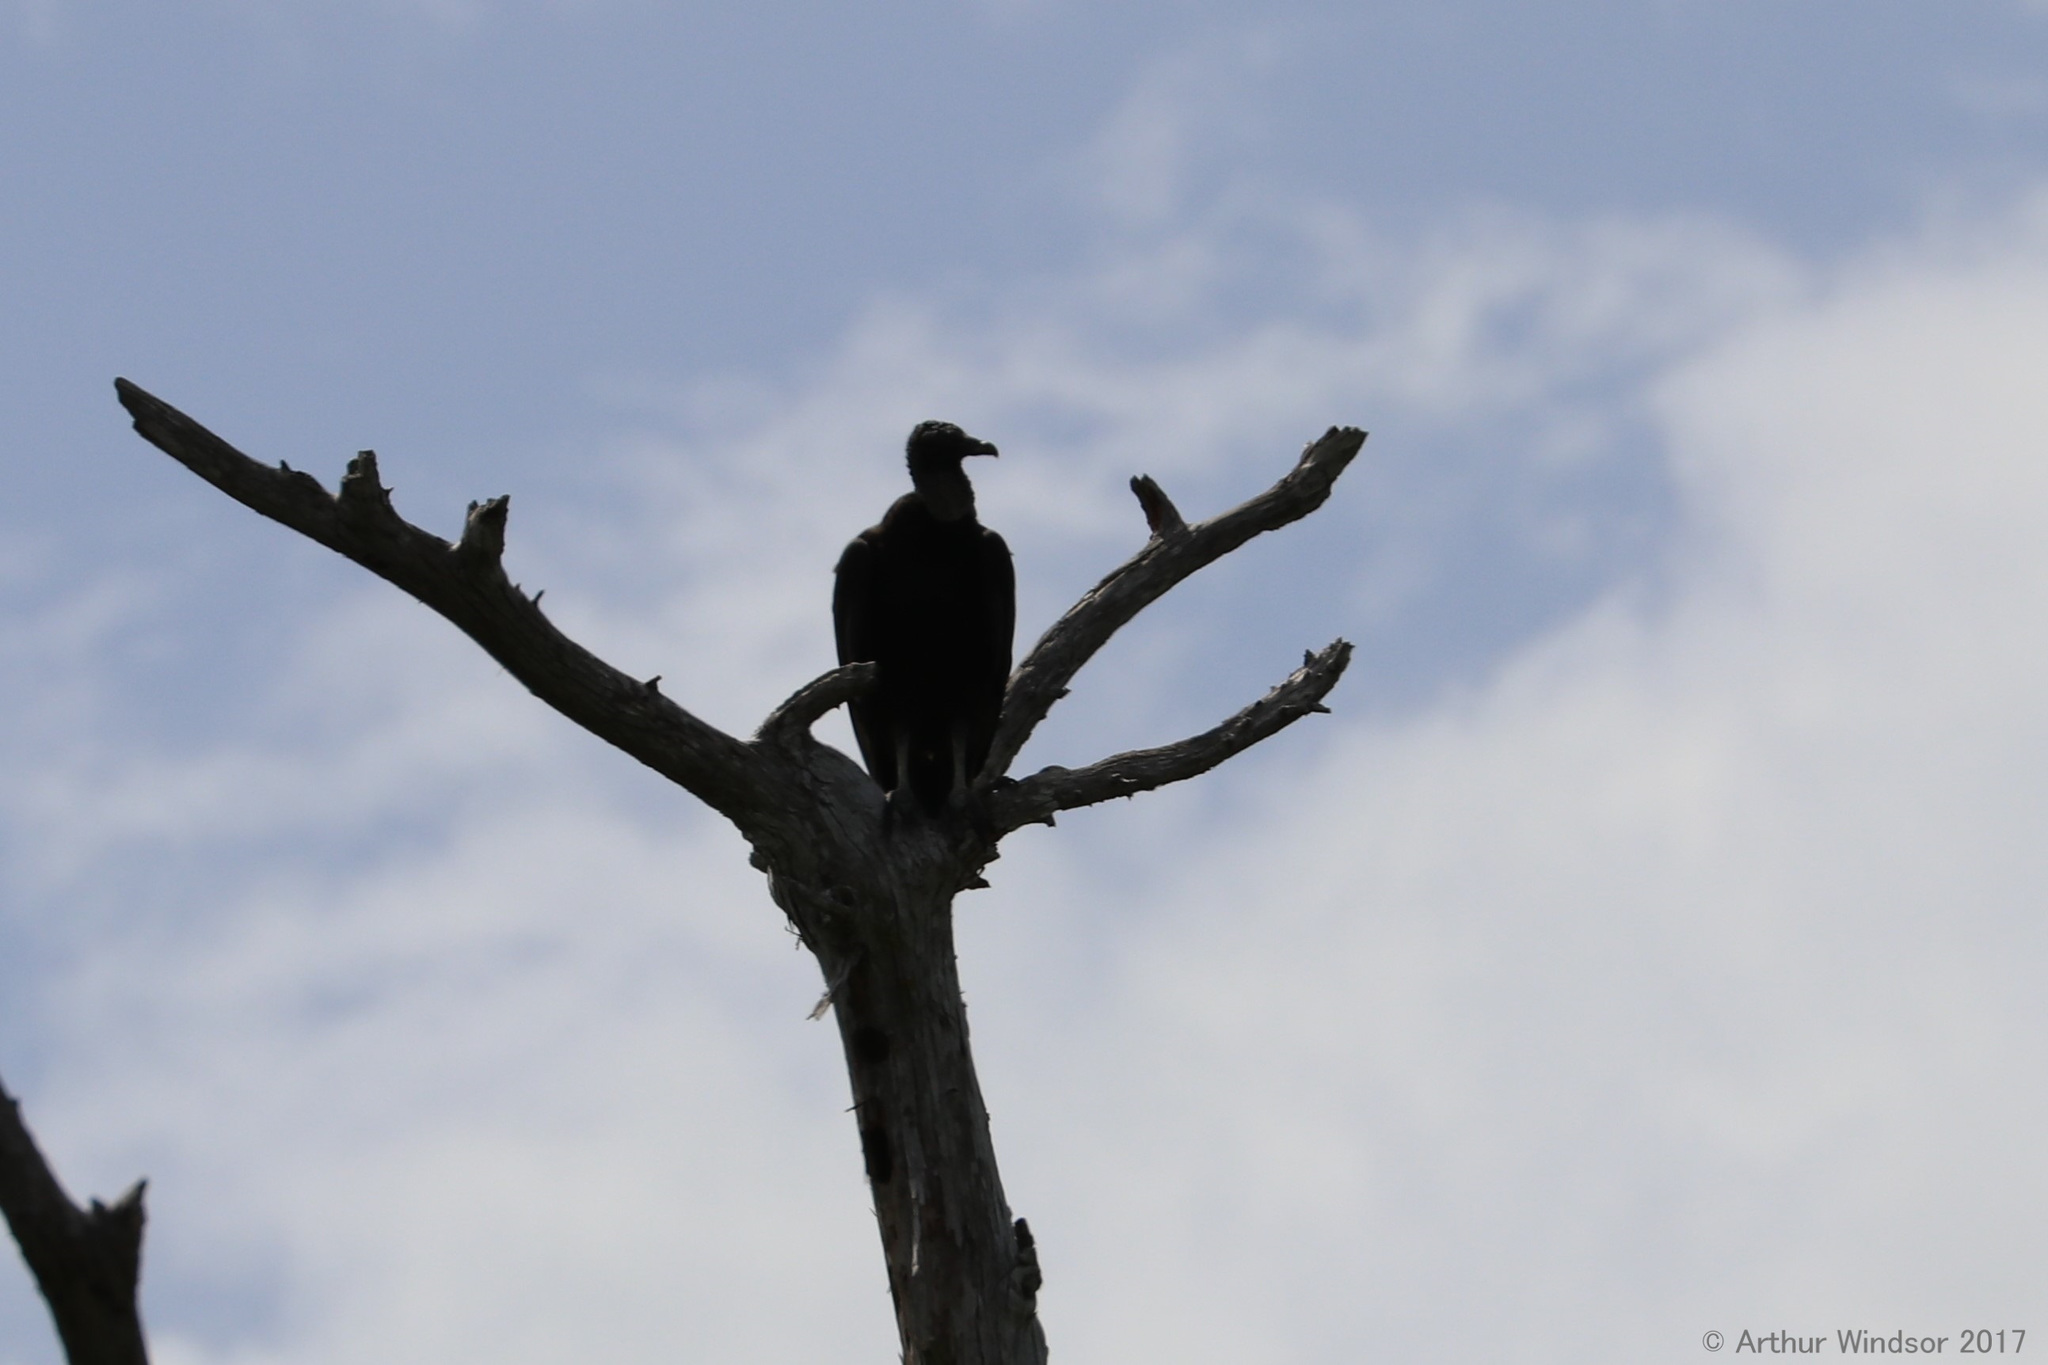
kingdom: Animalia
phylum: Chordata
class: Aves
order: Accipitriformes
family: Cathartidae
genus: Coragyps
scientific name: Coragyps atratus
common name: Black vulture
